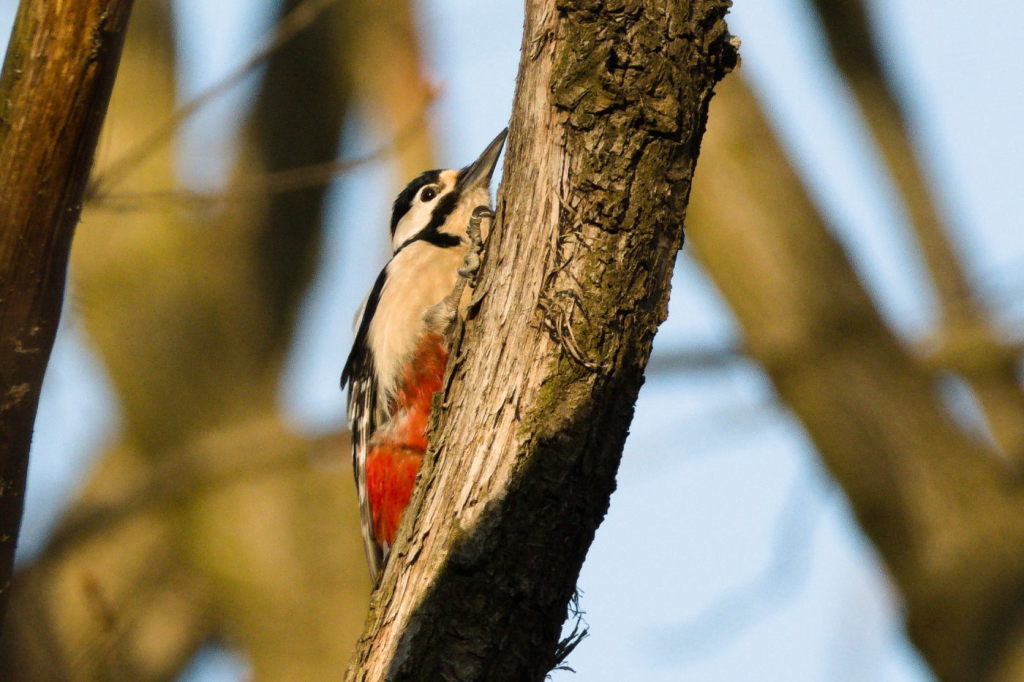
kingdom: Animalia
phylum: Chordata
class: Aves
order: Piciformes
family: Picidae
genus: Dendrocopos
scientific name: Dendrocopos major
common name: Great spotted woodpecker
